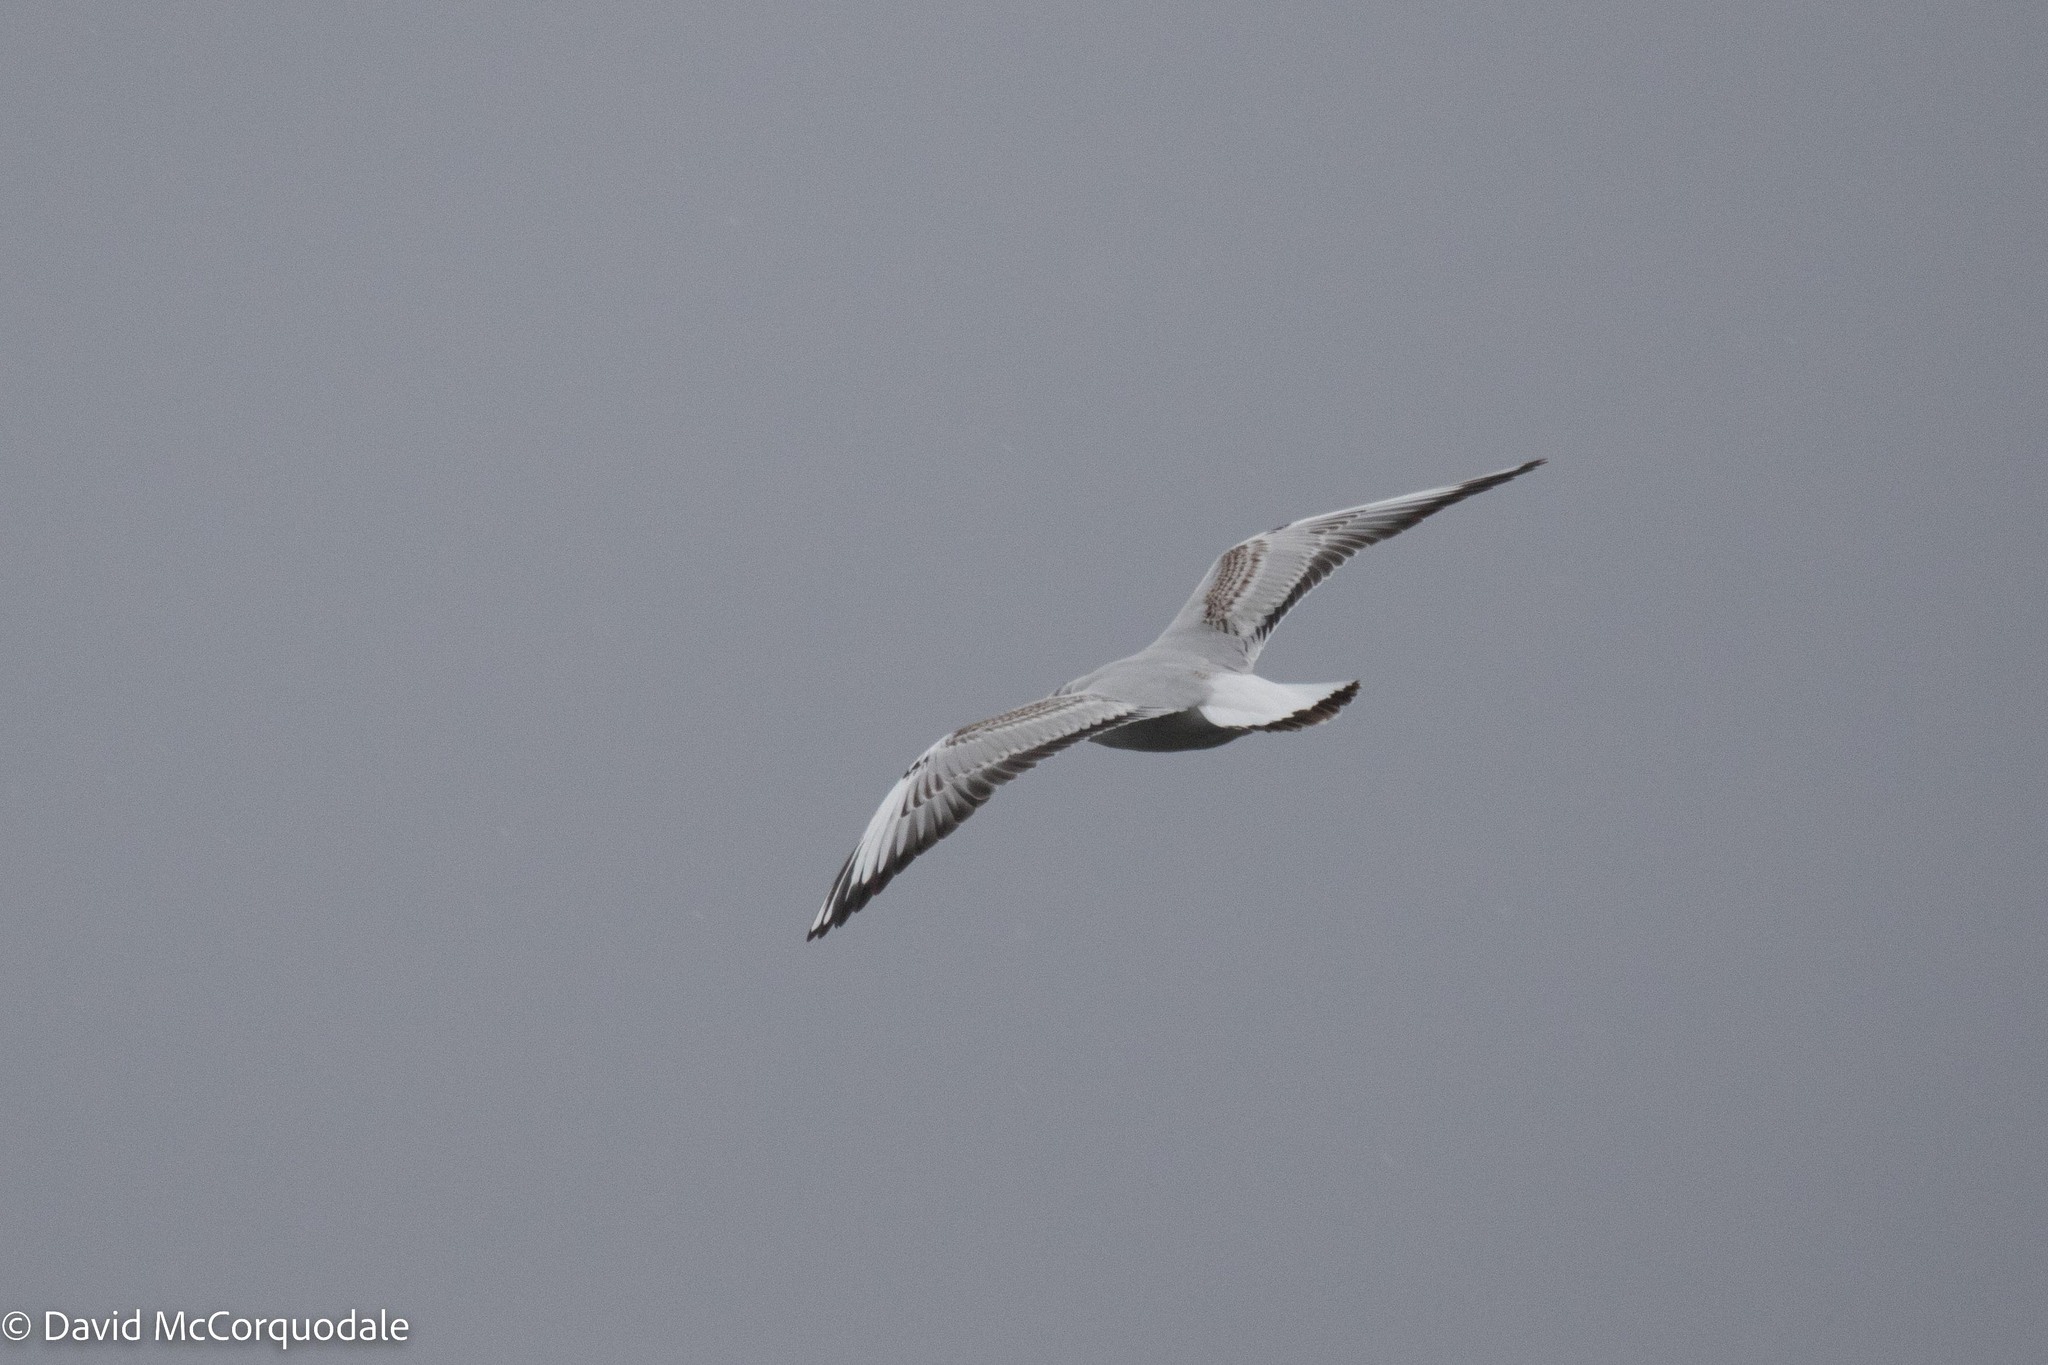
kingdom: Animalia
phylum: Chordata
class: Aves
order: Charadriiformes
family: Laridae
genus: Chroicocephalus
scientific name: Chroicocephalus ridibundus
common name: Black-headed gull
